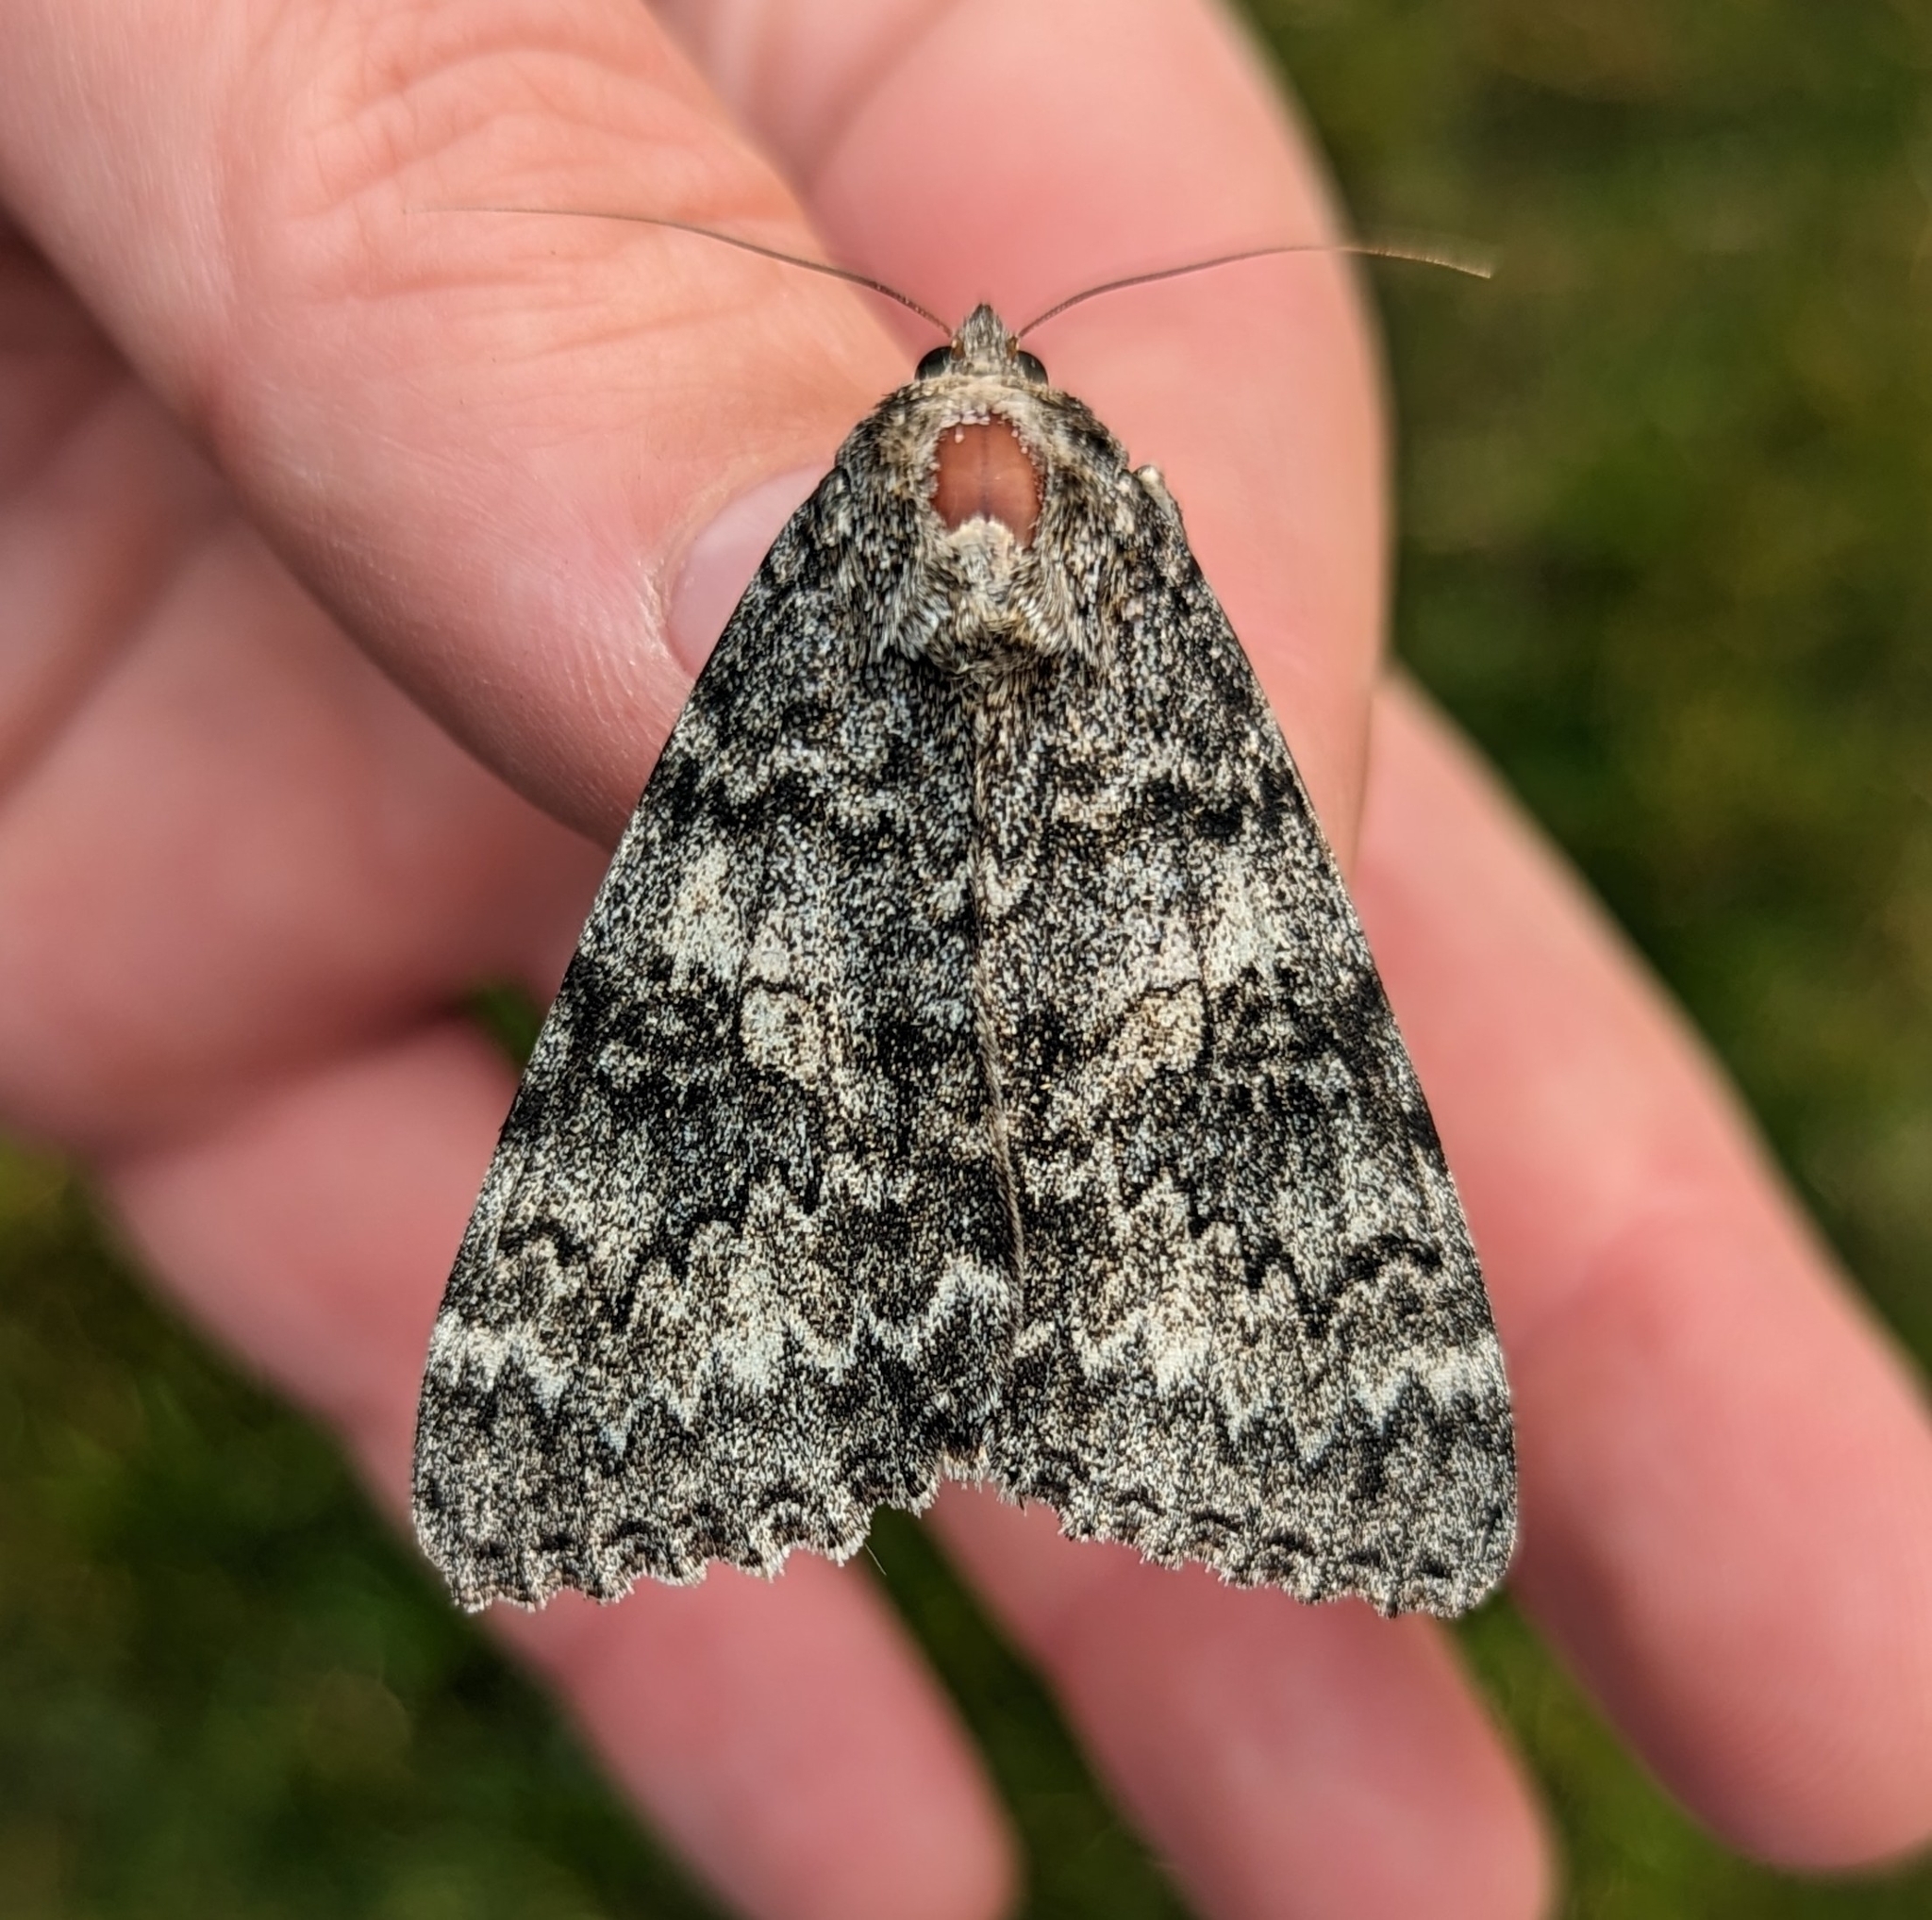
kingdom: Animalia
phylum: Arthropoda
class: Insecta
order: Lepidoptera
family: Erebidae
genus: Catocala
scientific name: Catocala unijuga
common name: Once-married underwing
